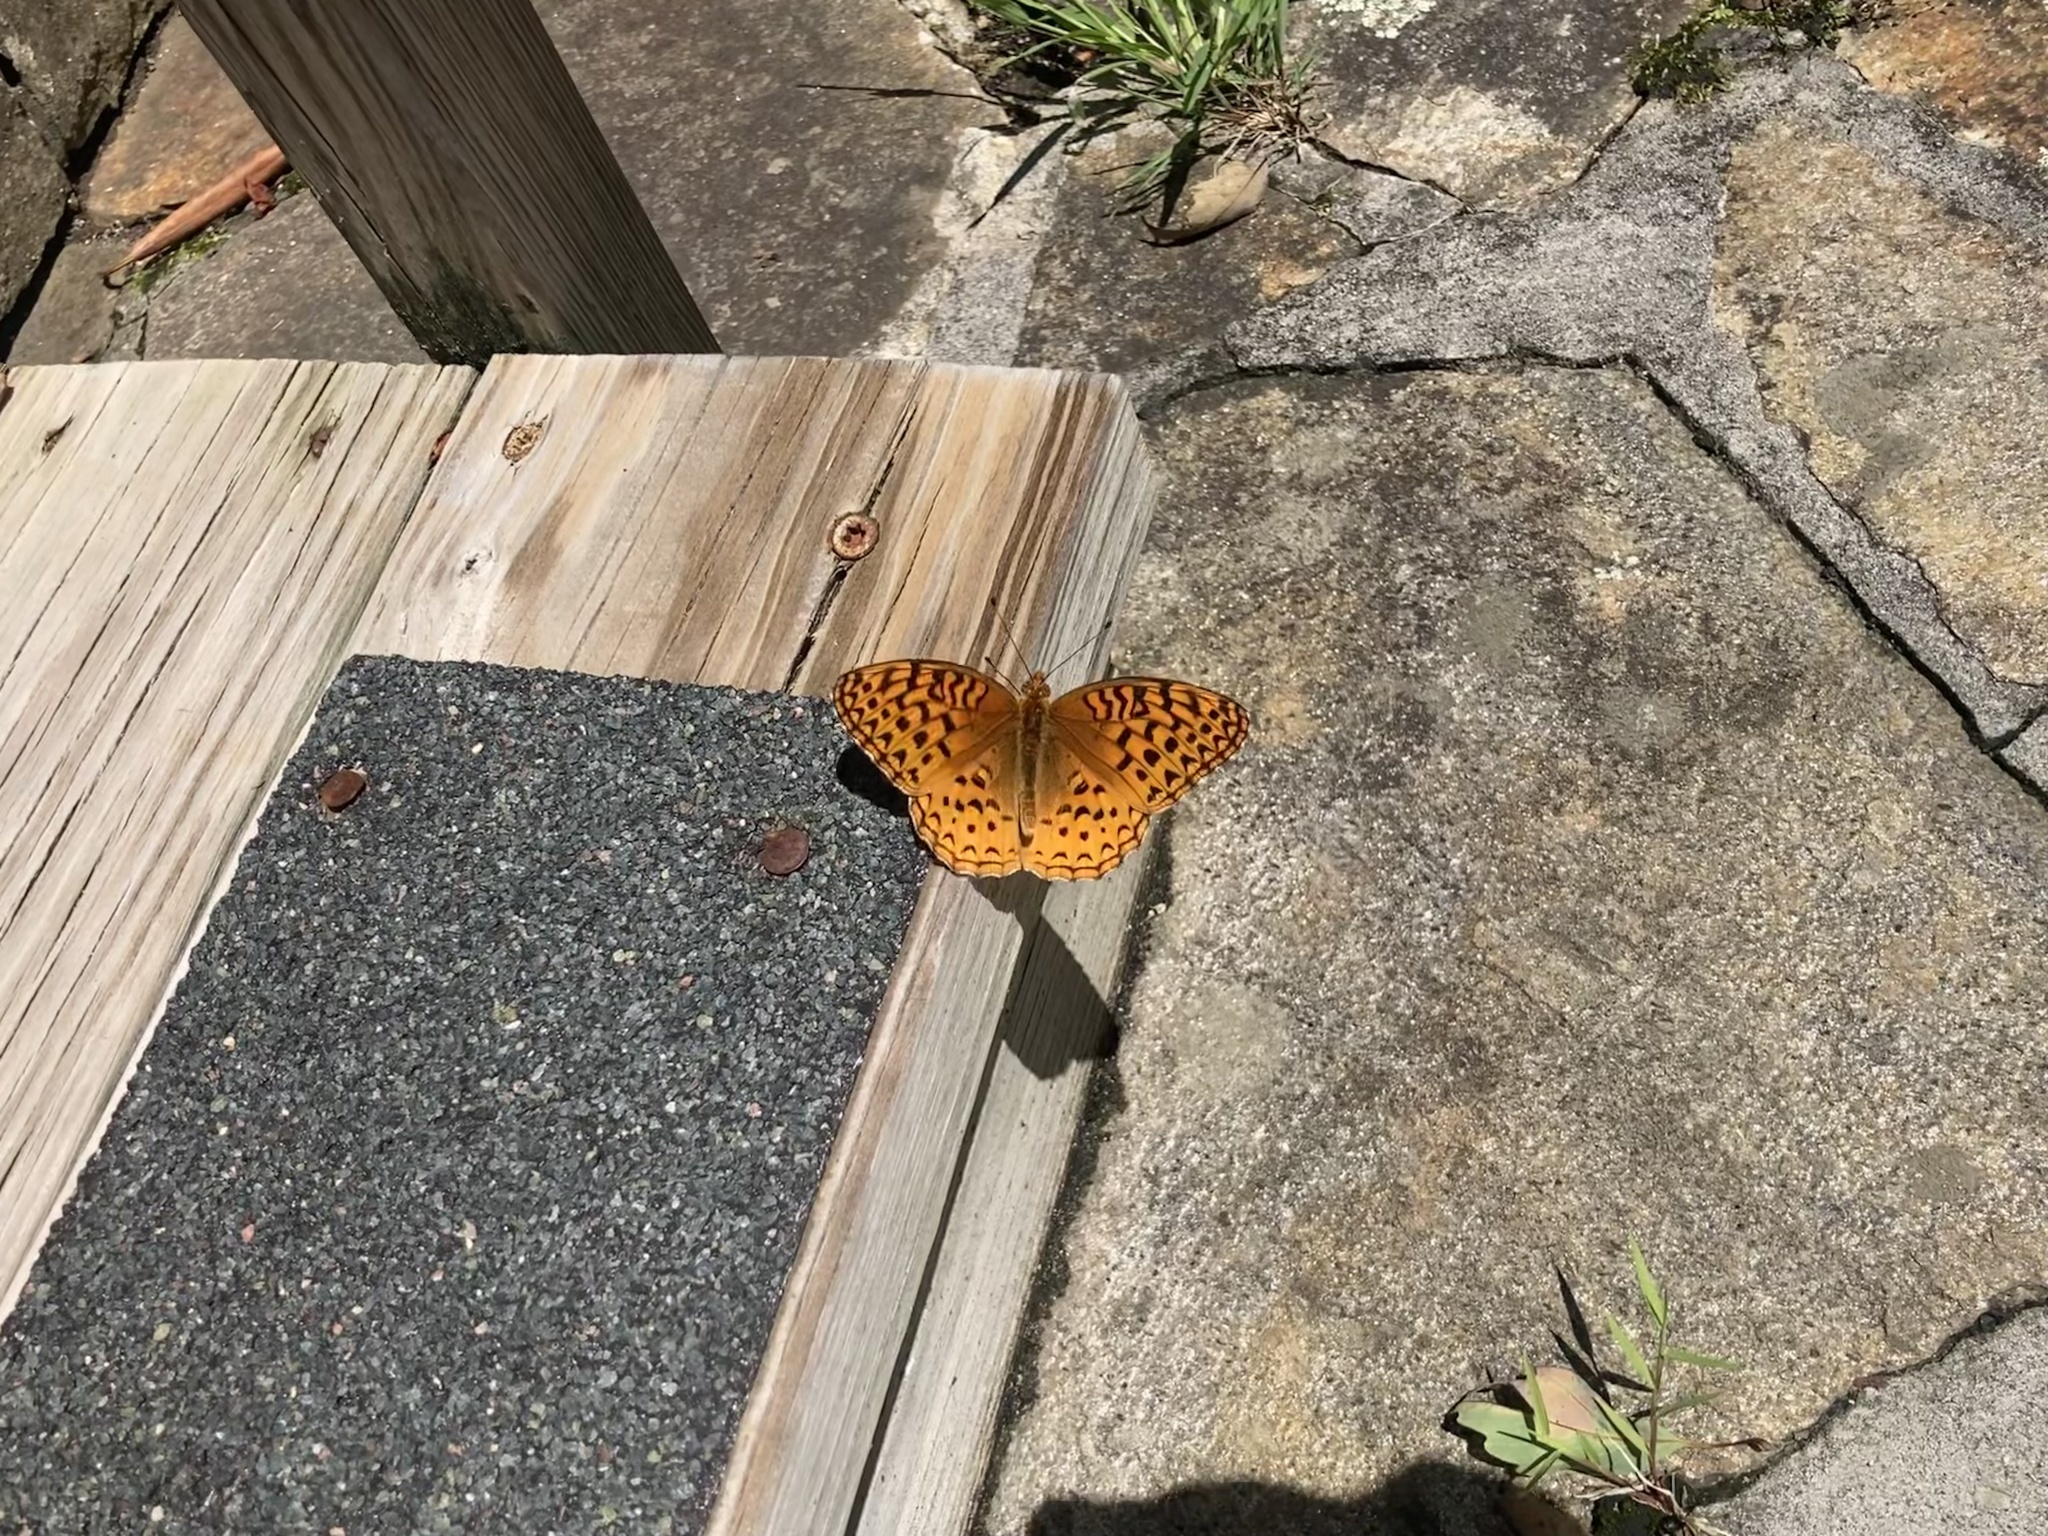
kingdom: Animalia
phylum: Arthropoda
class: Insecta
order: Lepidoptera
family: Nymphalidae
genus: Speyeria
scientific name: Speyeria cybele
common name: Great spangled fritillary
